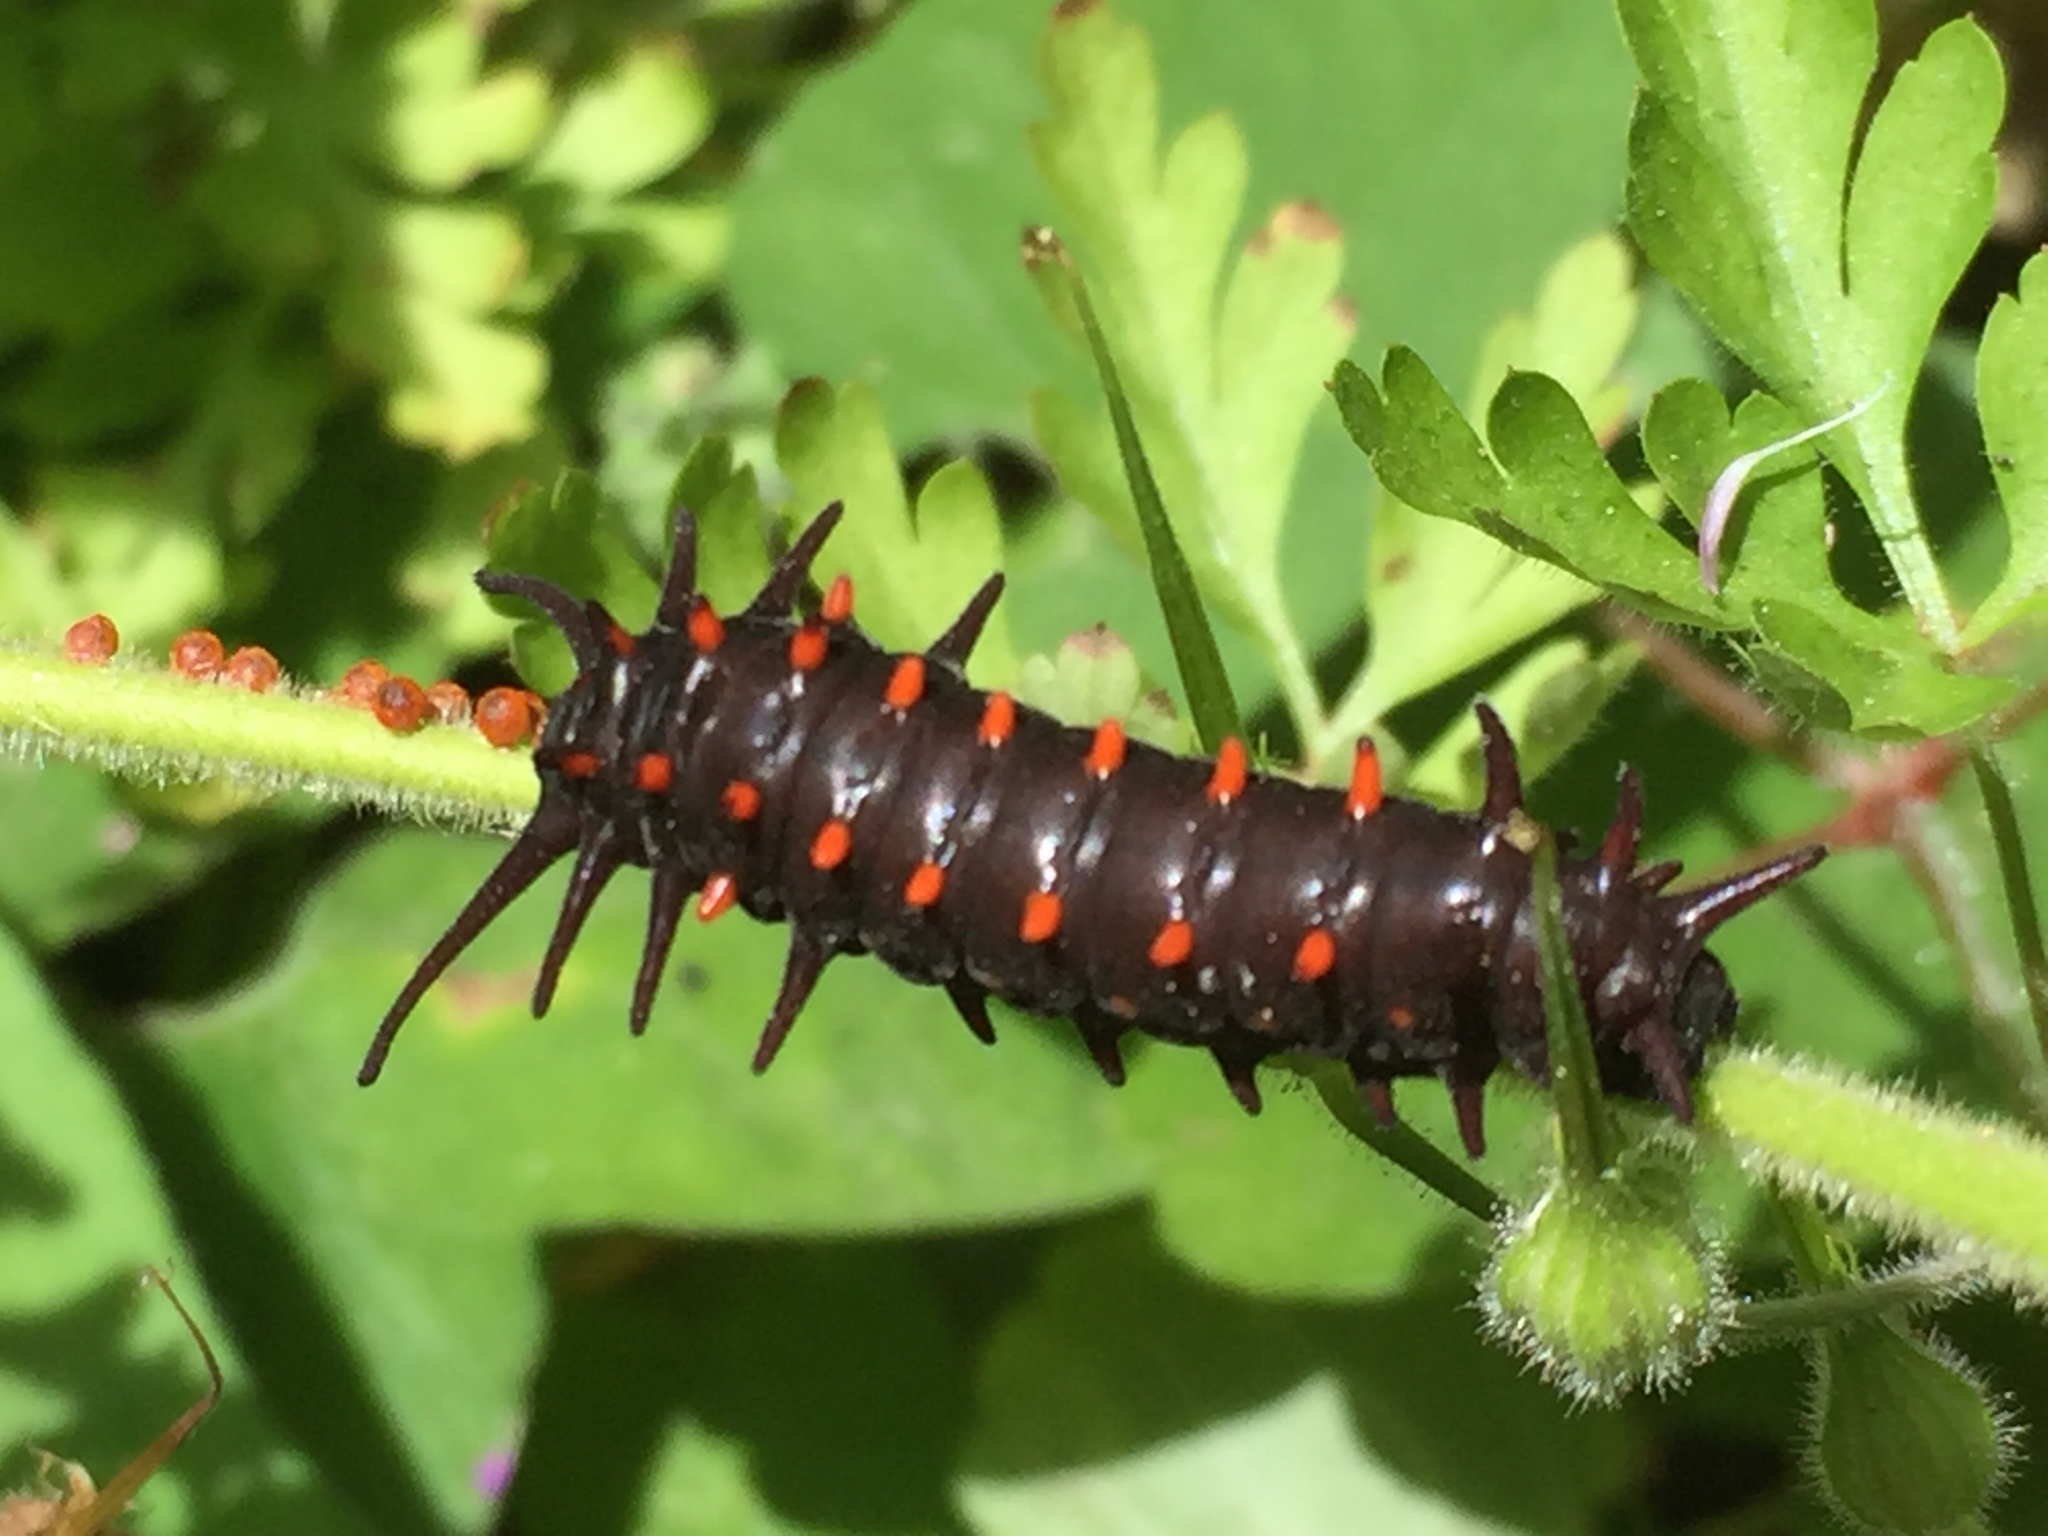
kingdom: Animalia
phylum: Arthropoda
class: Insecta
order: Lepidoptera
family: Papilionidae
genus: Battus
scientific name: Battus philenor
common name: Pipevine swallowtail
